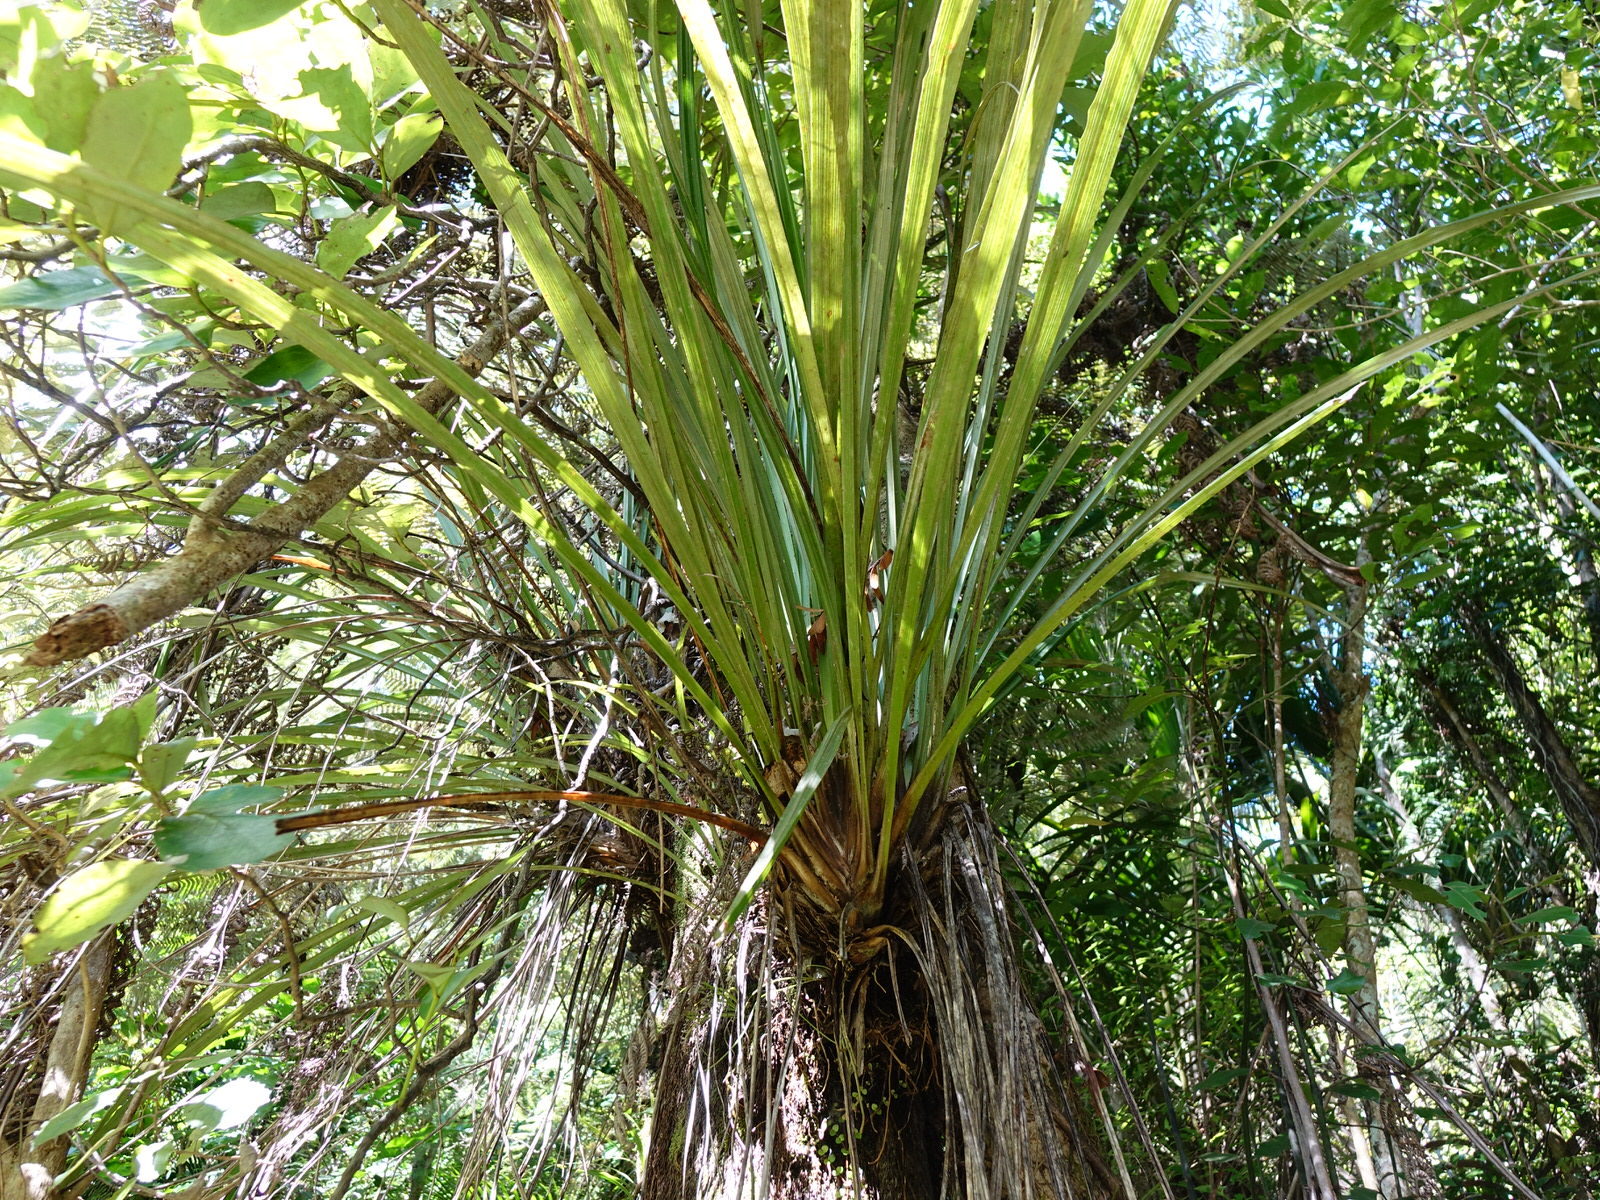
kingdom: Plantae
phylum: Tracheophyta
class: Liliopsida
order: Asparagales
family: Asteliaceae
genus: Astelia
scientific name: Astelia solandri
